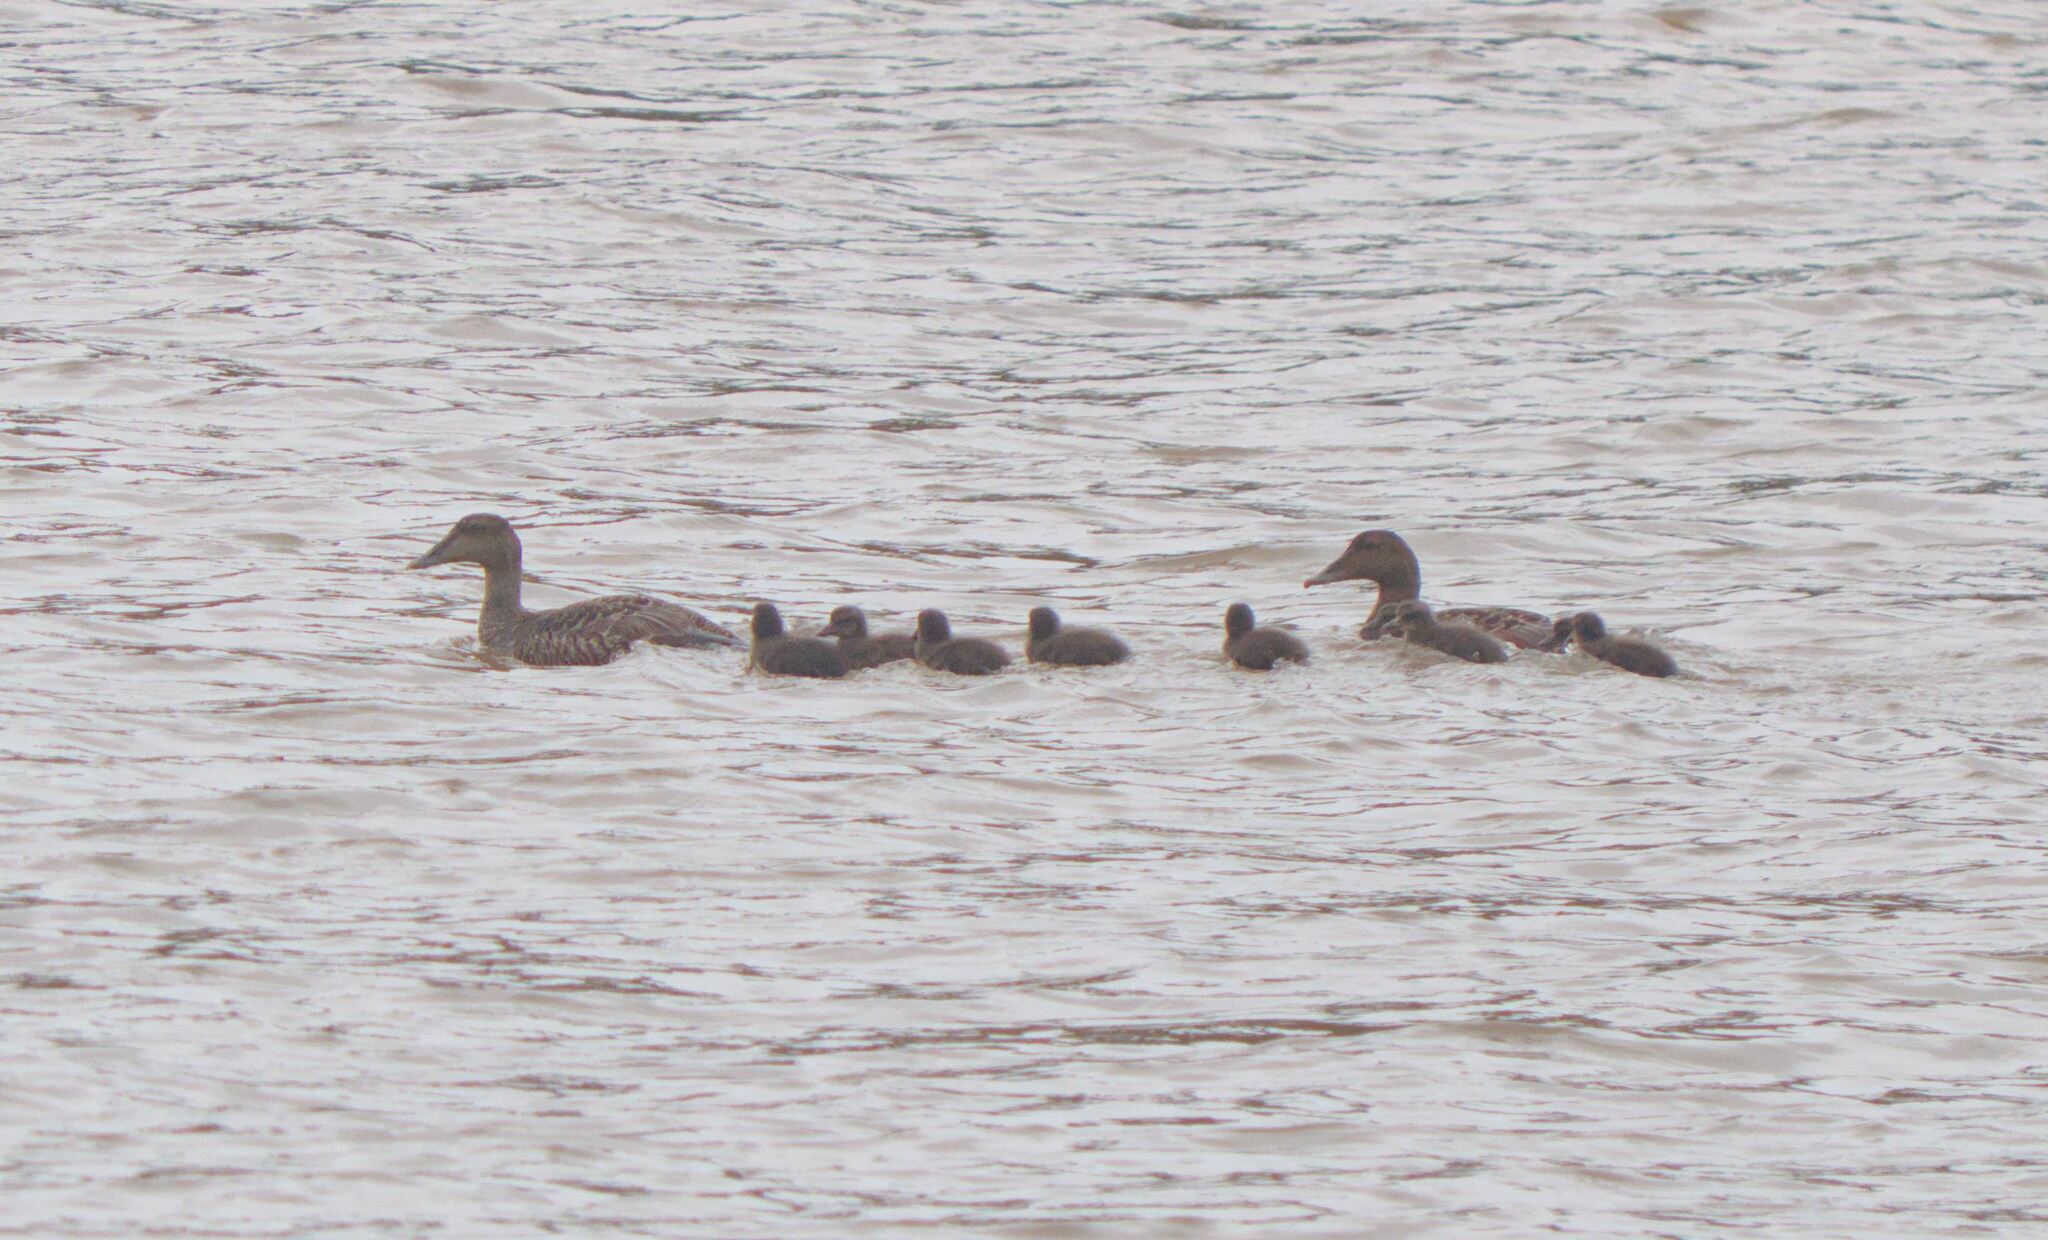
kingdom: Animalia
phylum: Chordata
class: Aves
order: Anseriformes
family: Anatidae
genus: Somateria
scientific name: Somateria mollissima
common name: Common eider
